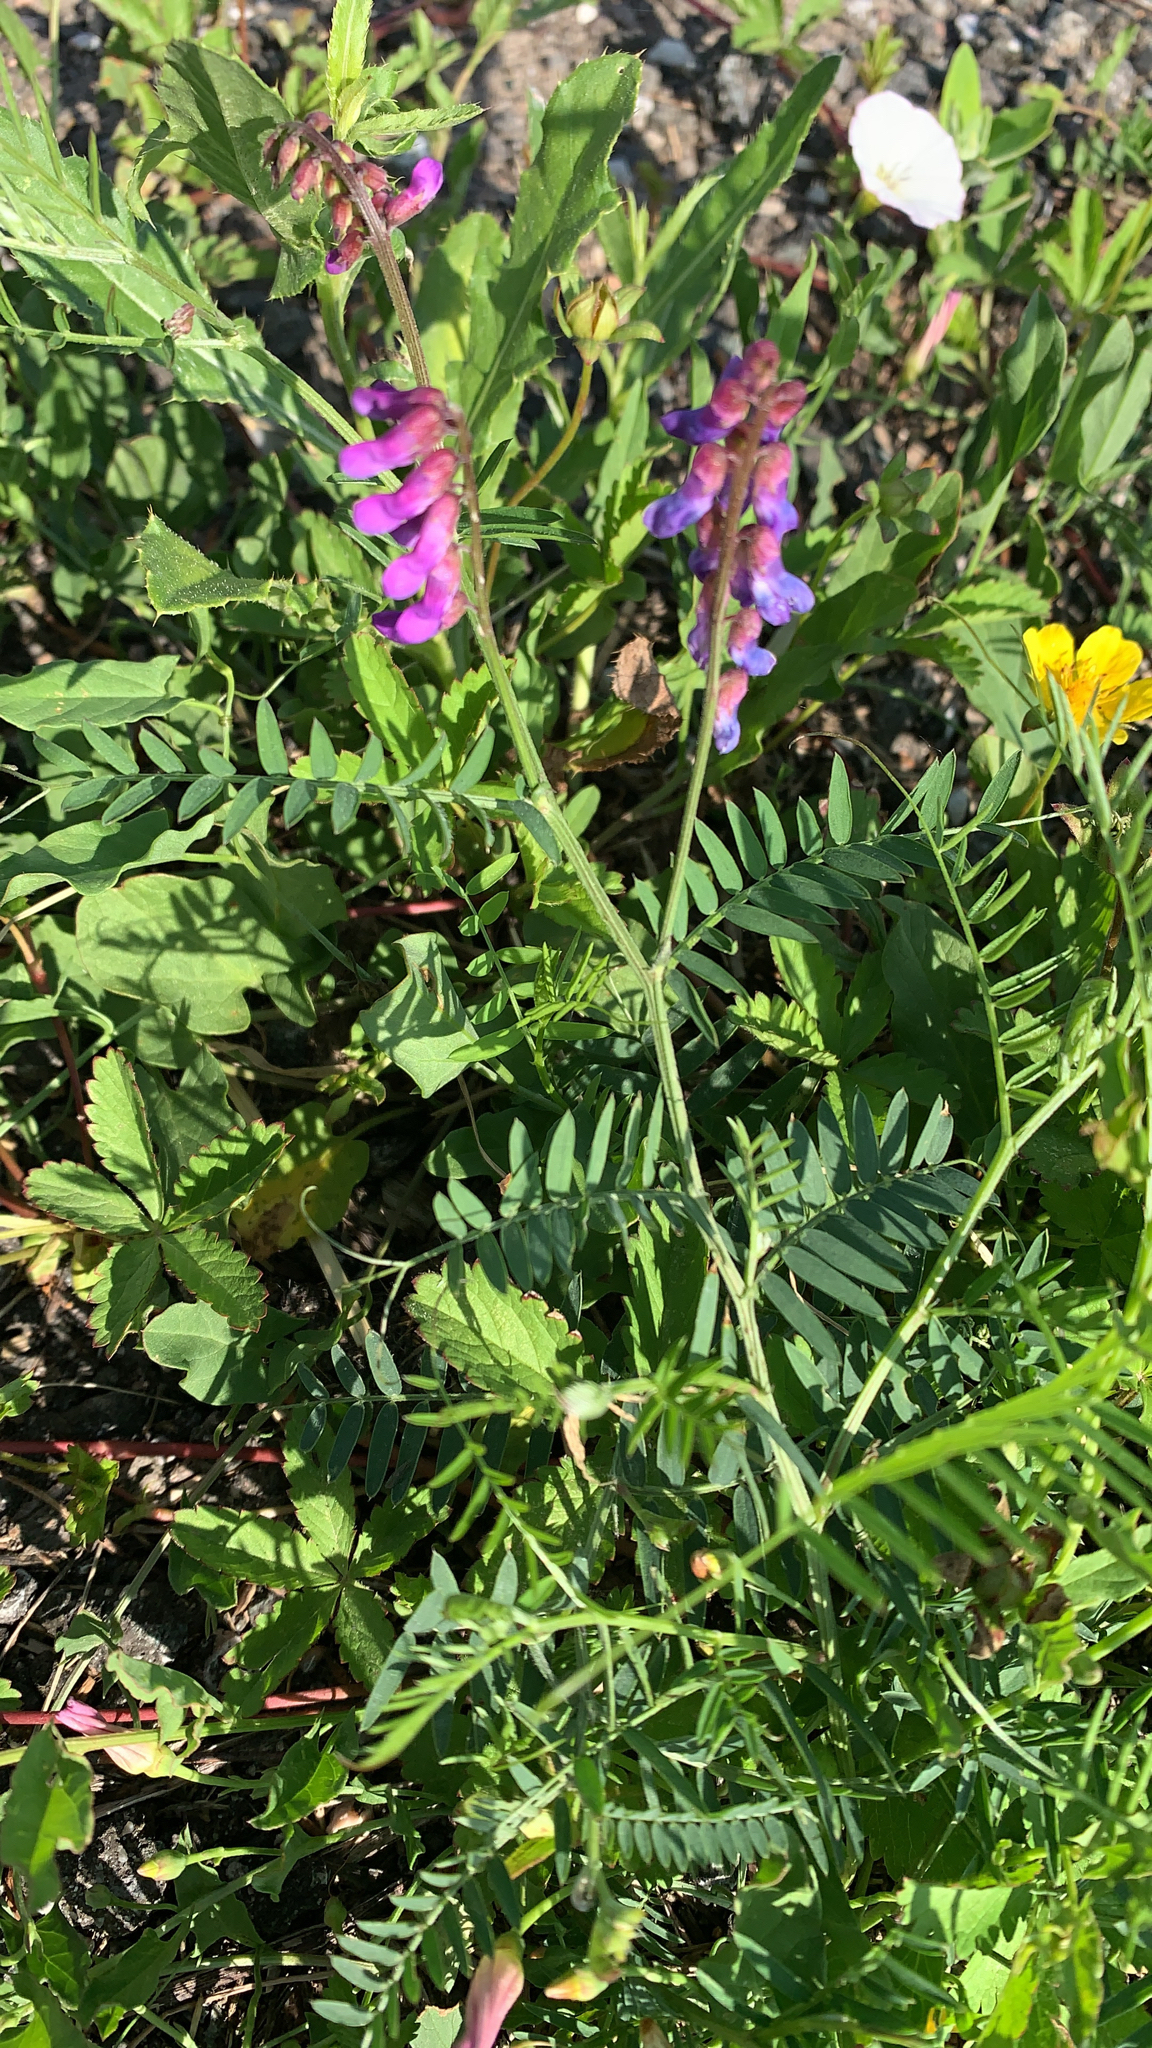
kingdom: Plantae
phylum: Tracheophyta
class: Magnoliopsida
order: Fabales
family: Fabaceae
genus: Vicia
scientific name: Vicia cracca
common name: Bird vetch
